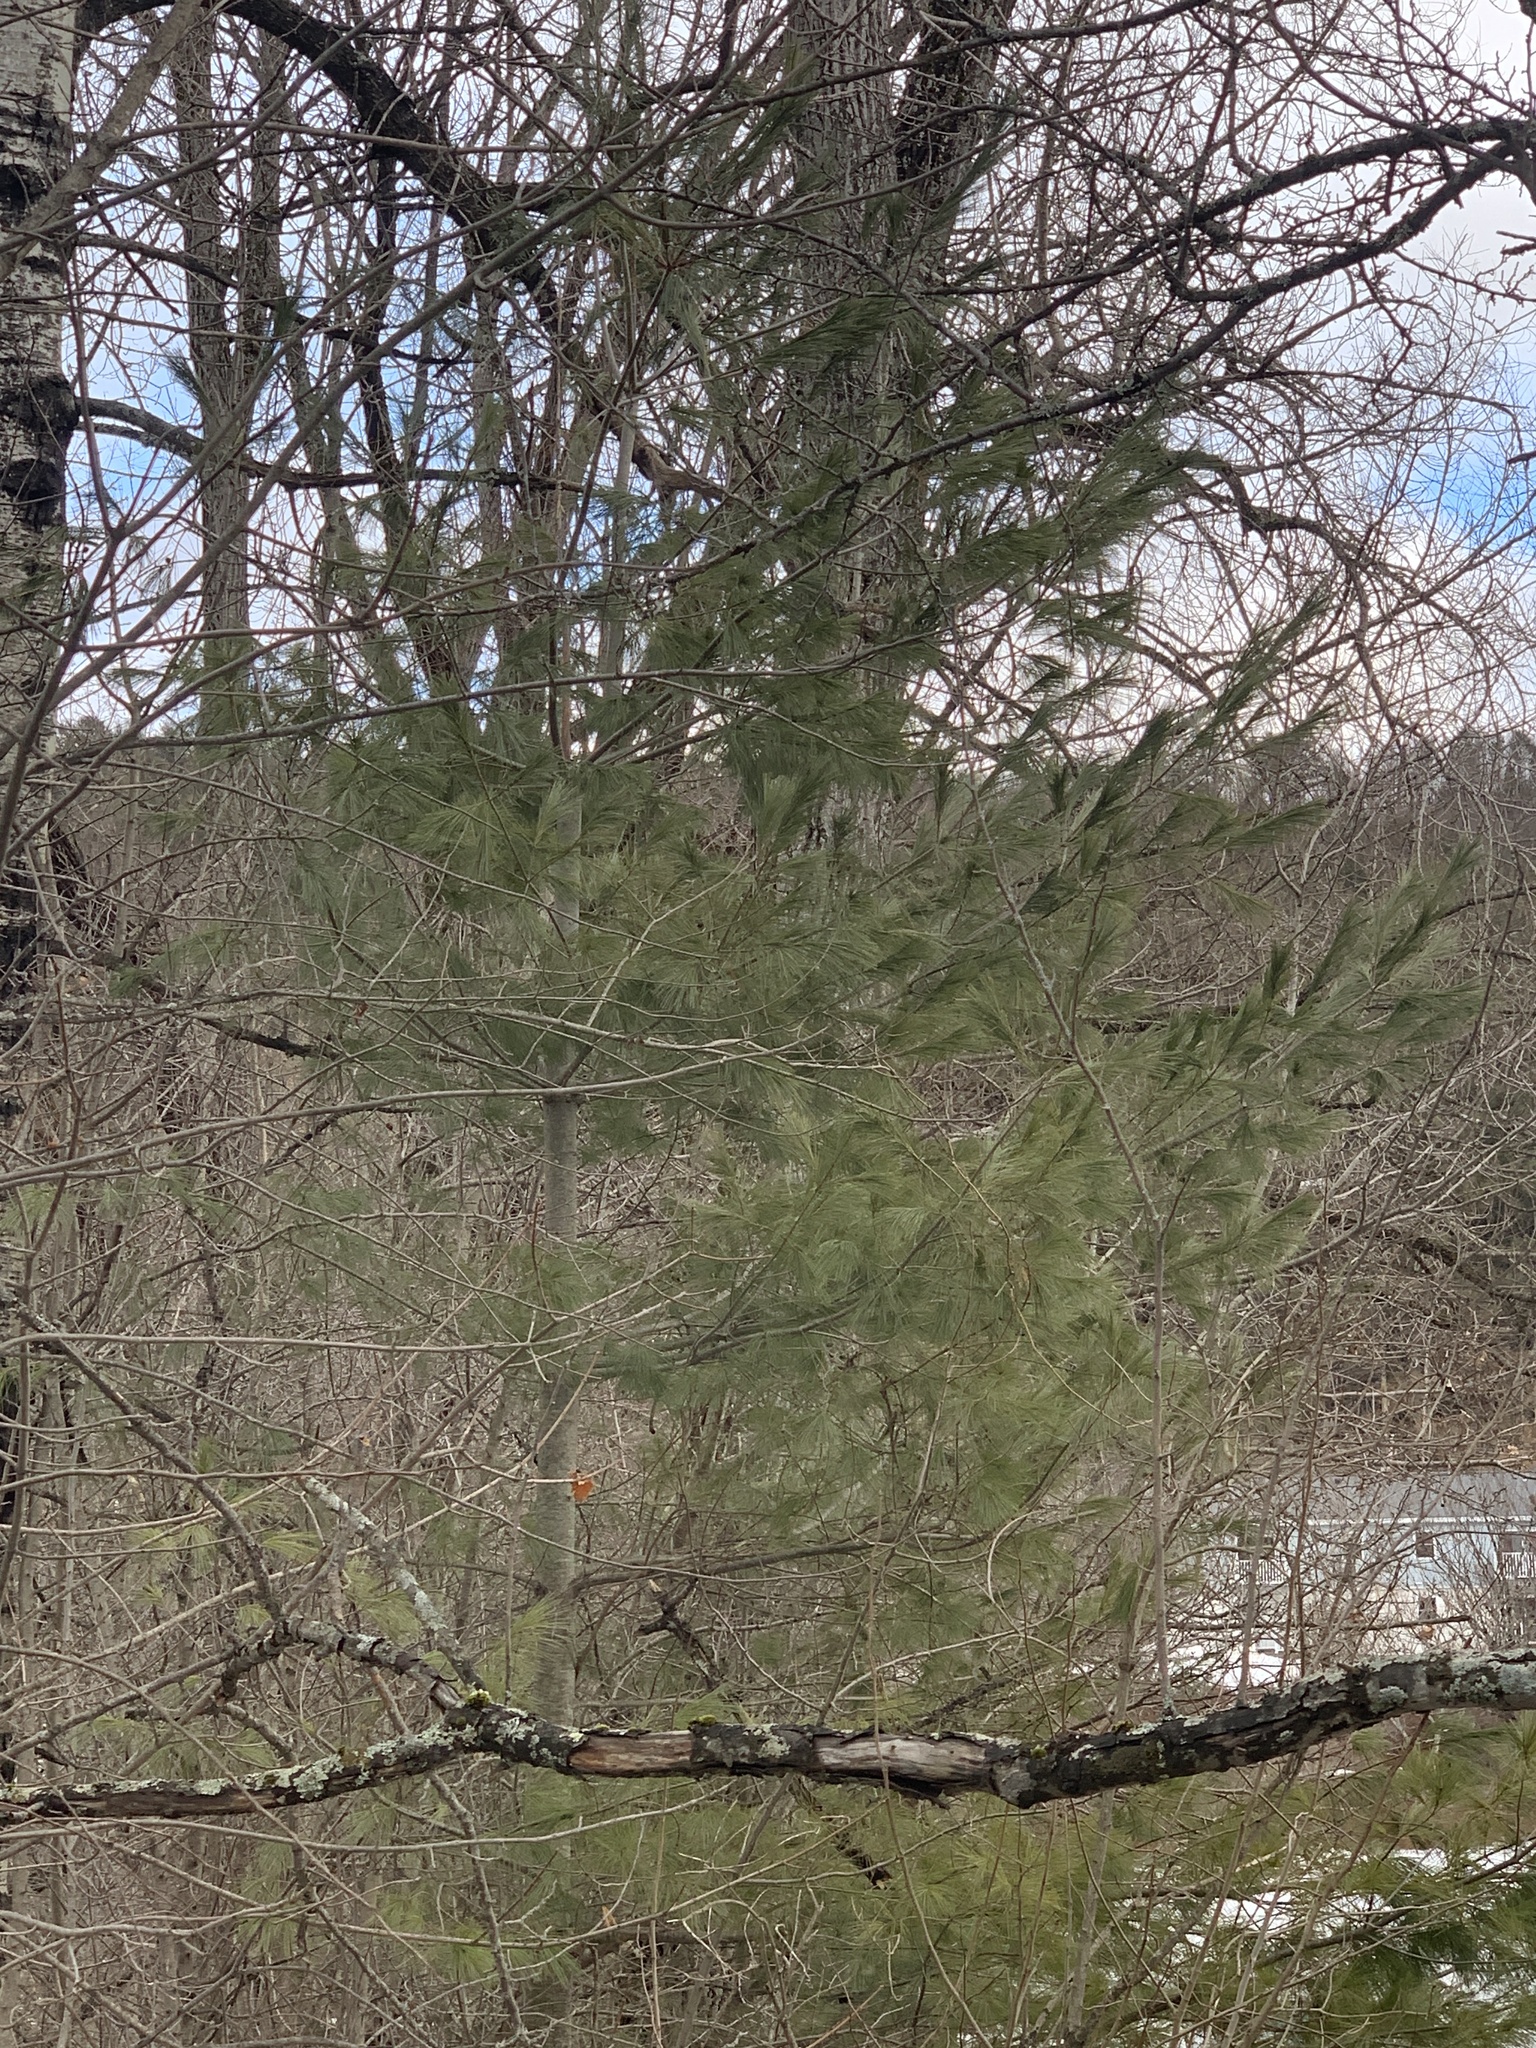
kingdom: Plantae
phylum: Tracheophyta
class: Pinopsida
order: Pinales
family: Pinaceae
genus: Pinus
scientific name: Pinus strobus
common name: Weymouth pine
